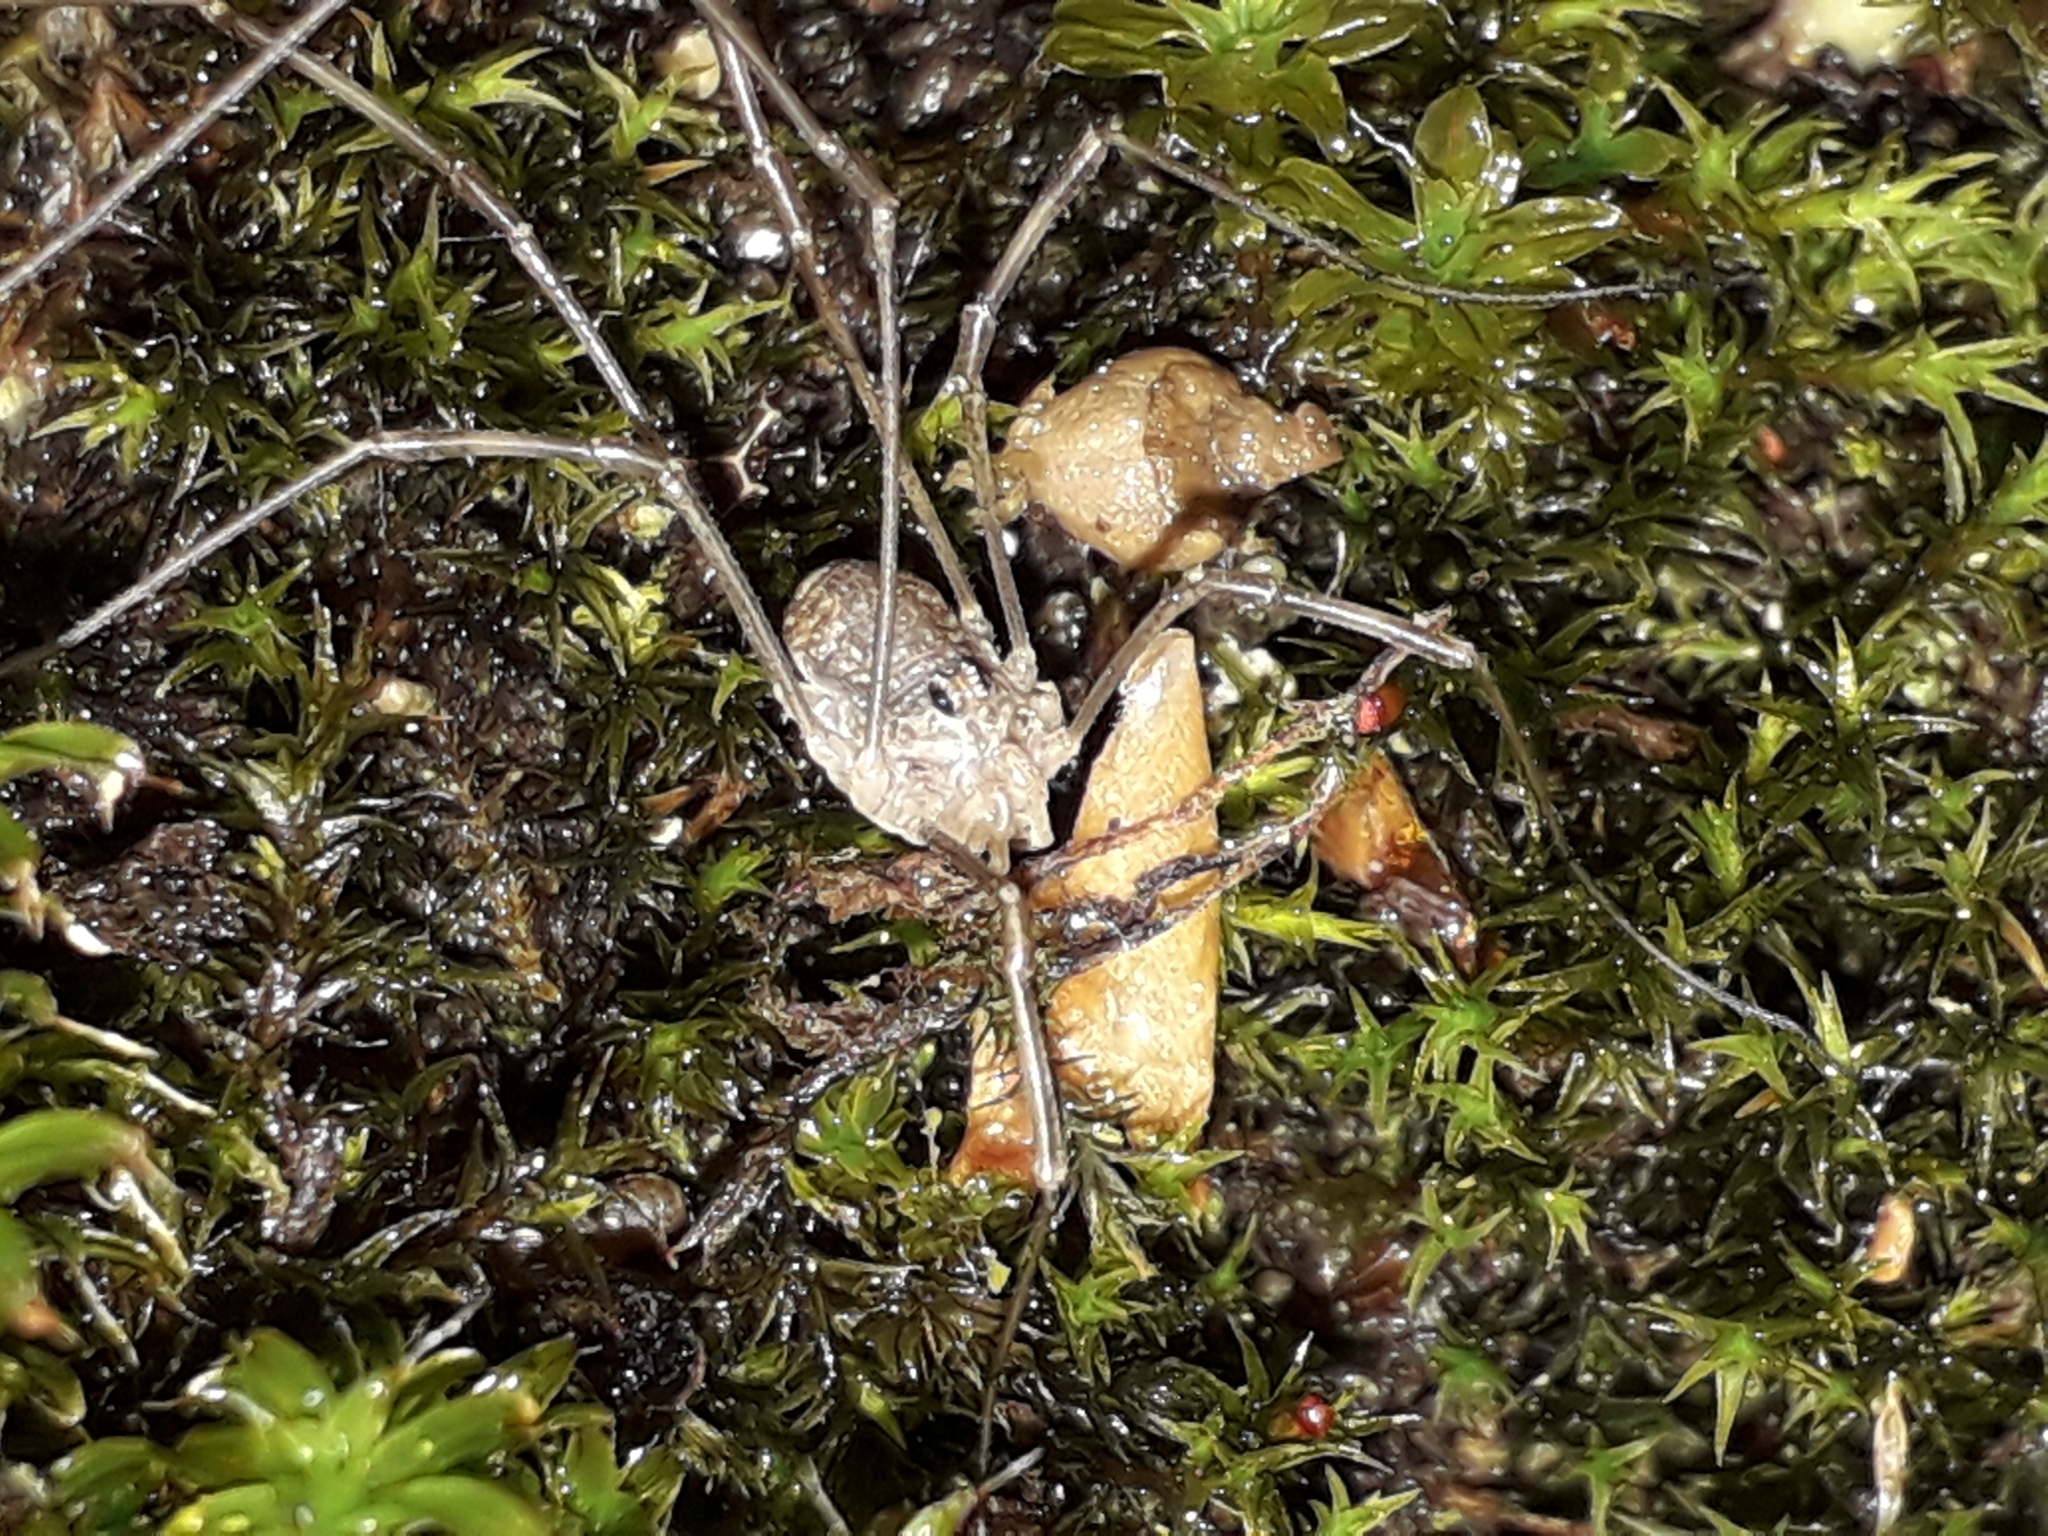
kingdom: Animalia
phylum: Arthropoda
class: Arachnida
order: Opiliones
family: Phalangiidae
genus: Rilaena
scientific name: Rilaena triangularis
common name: Spring harvestman
